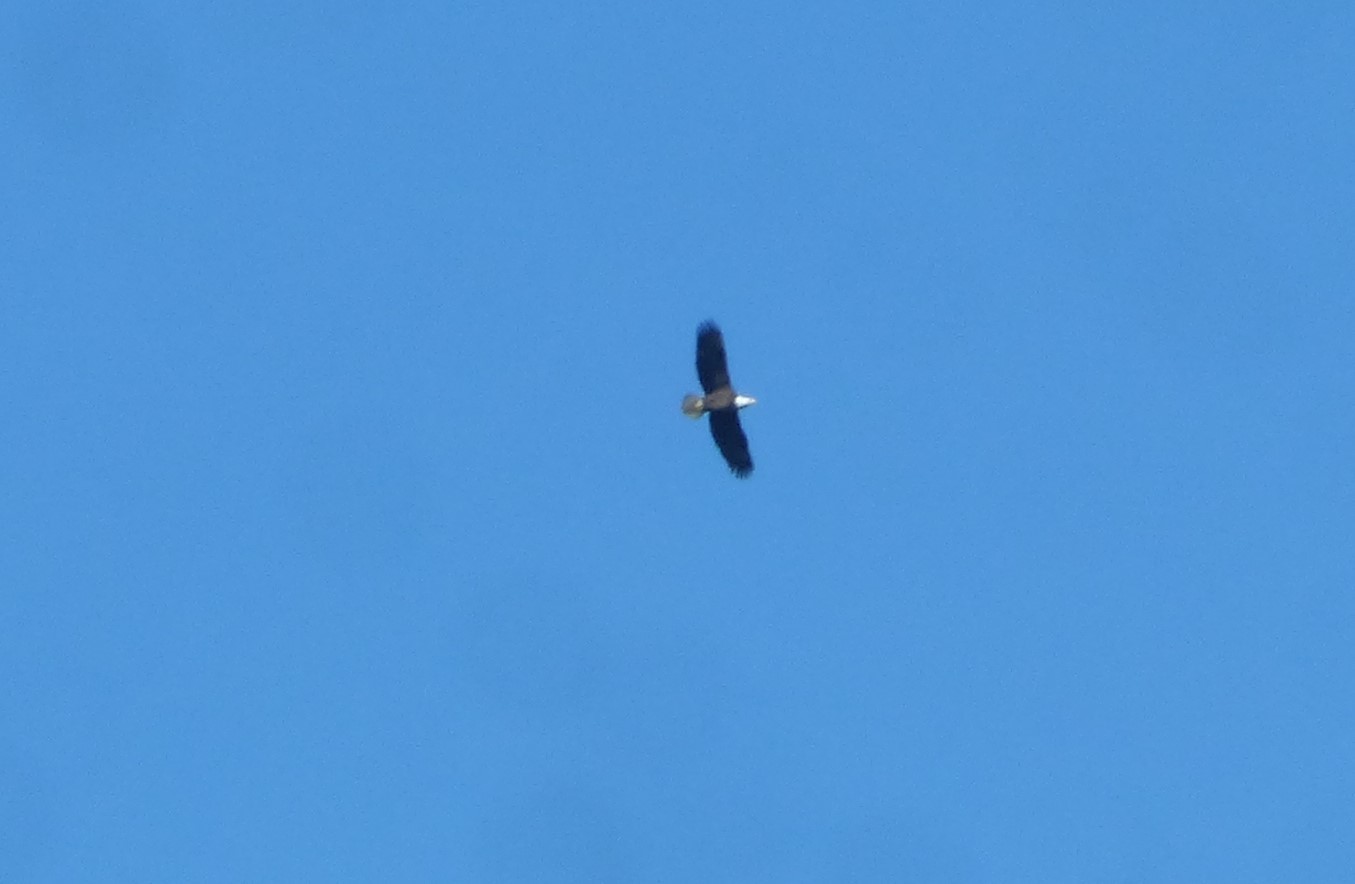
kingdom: Animalia
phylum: Chordata
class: Aves
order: Accipitriformes
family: Accipitridae
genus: Haliaeetus
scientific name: Haliaeetus leucocephalus
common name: Bald eagle
